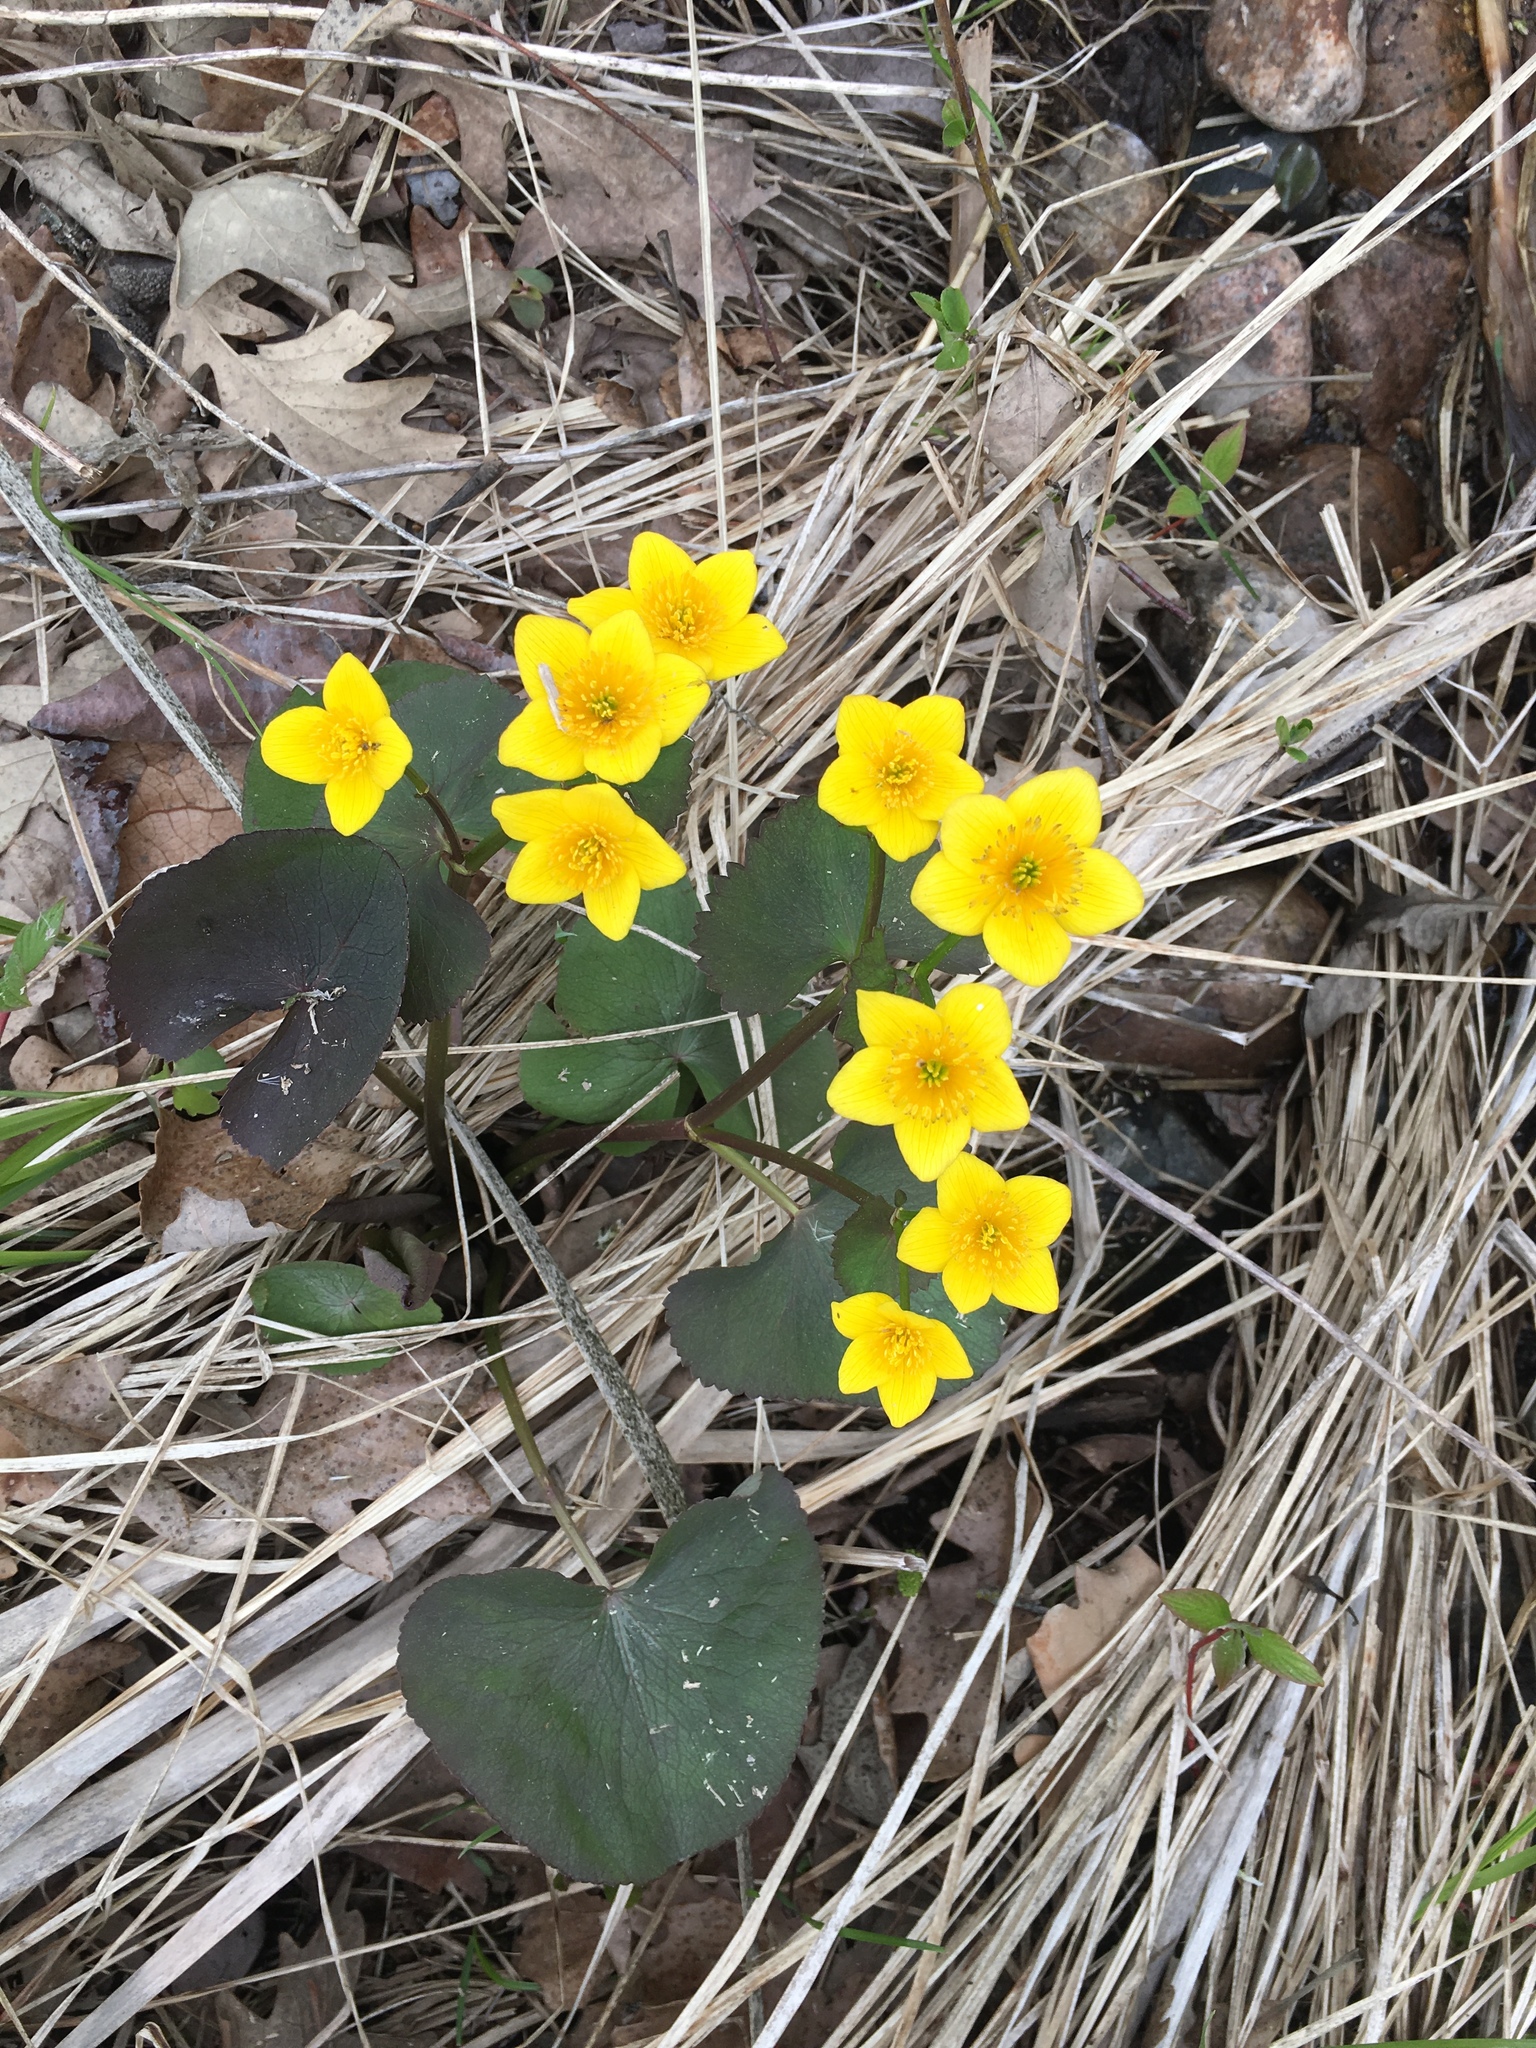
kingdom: Plantae
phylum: Tracheophyta
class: Magnoliopsida
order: Ranunculales
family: Ranunculaceae
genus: Caltha
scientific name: Caltha palustris
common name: Marsh marigold
